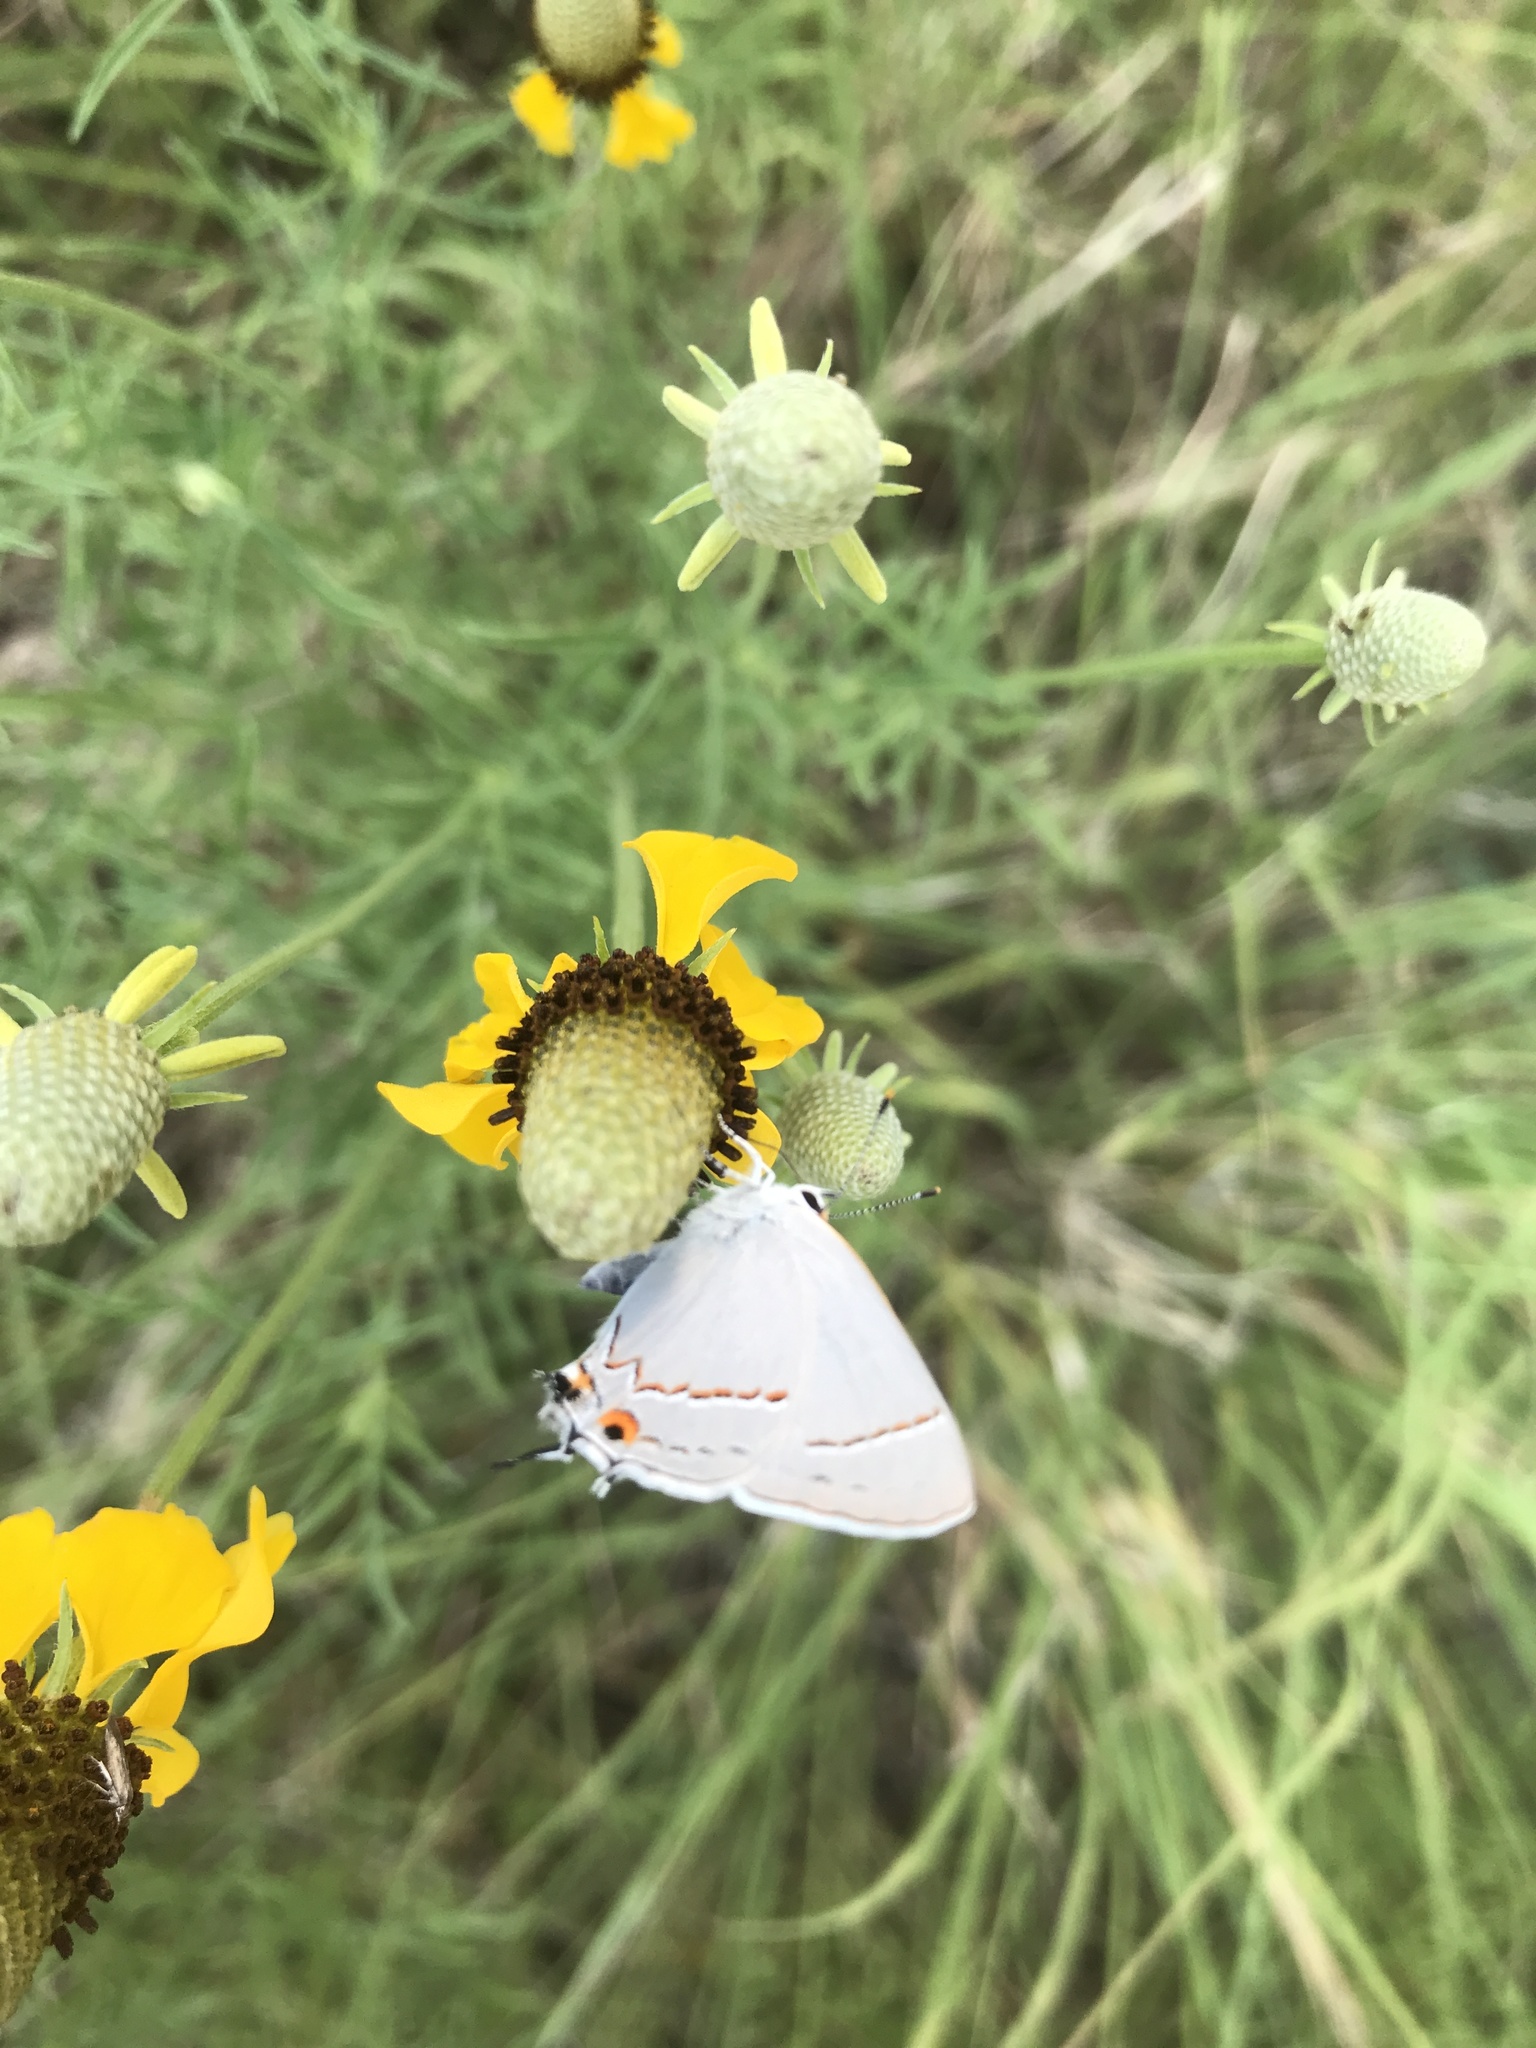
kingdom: Animalia
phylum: Arthropoda
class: Insecta
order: Lepidoptera
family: Lycaenidae
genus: Strymon
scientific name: Strymon melinus
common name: Gray hairstreak
